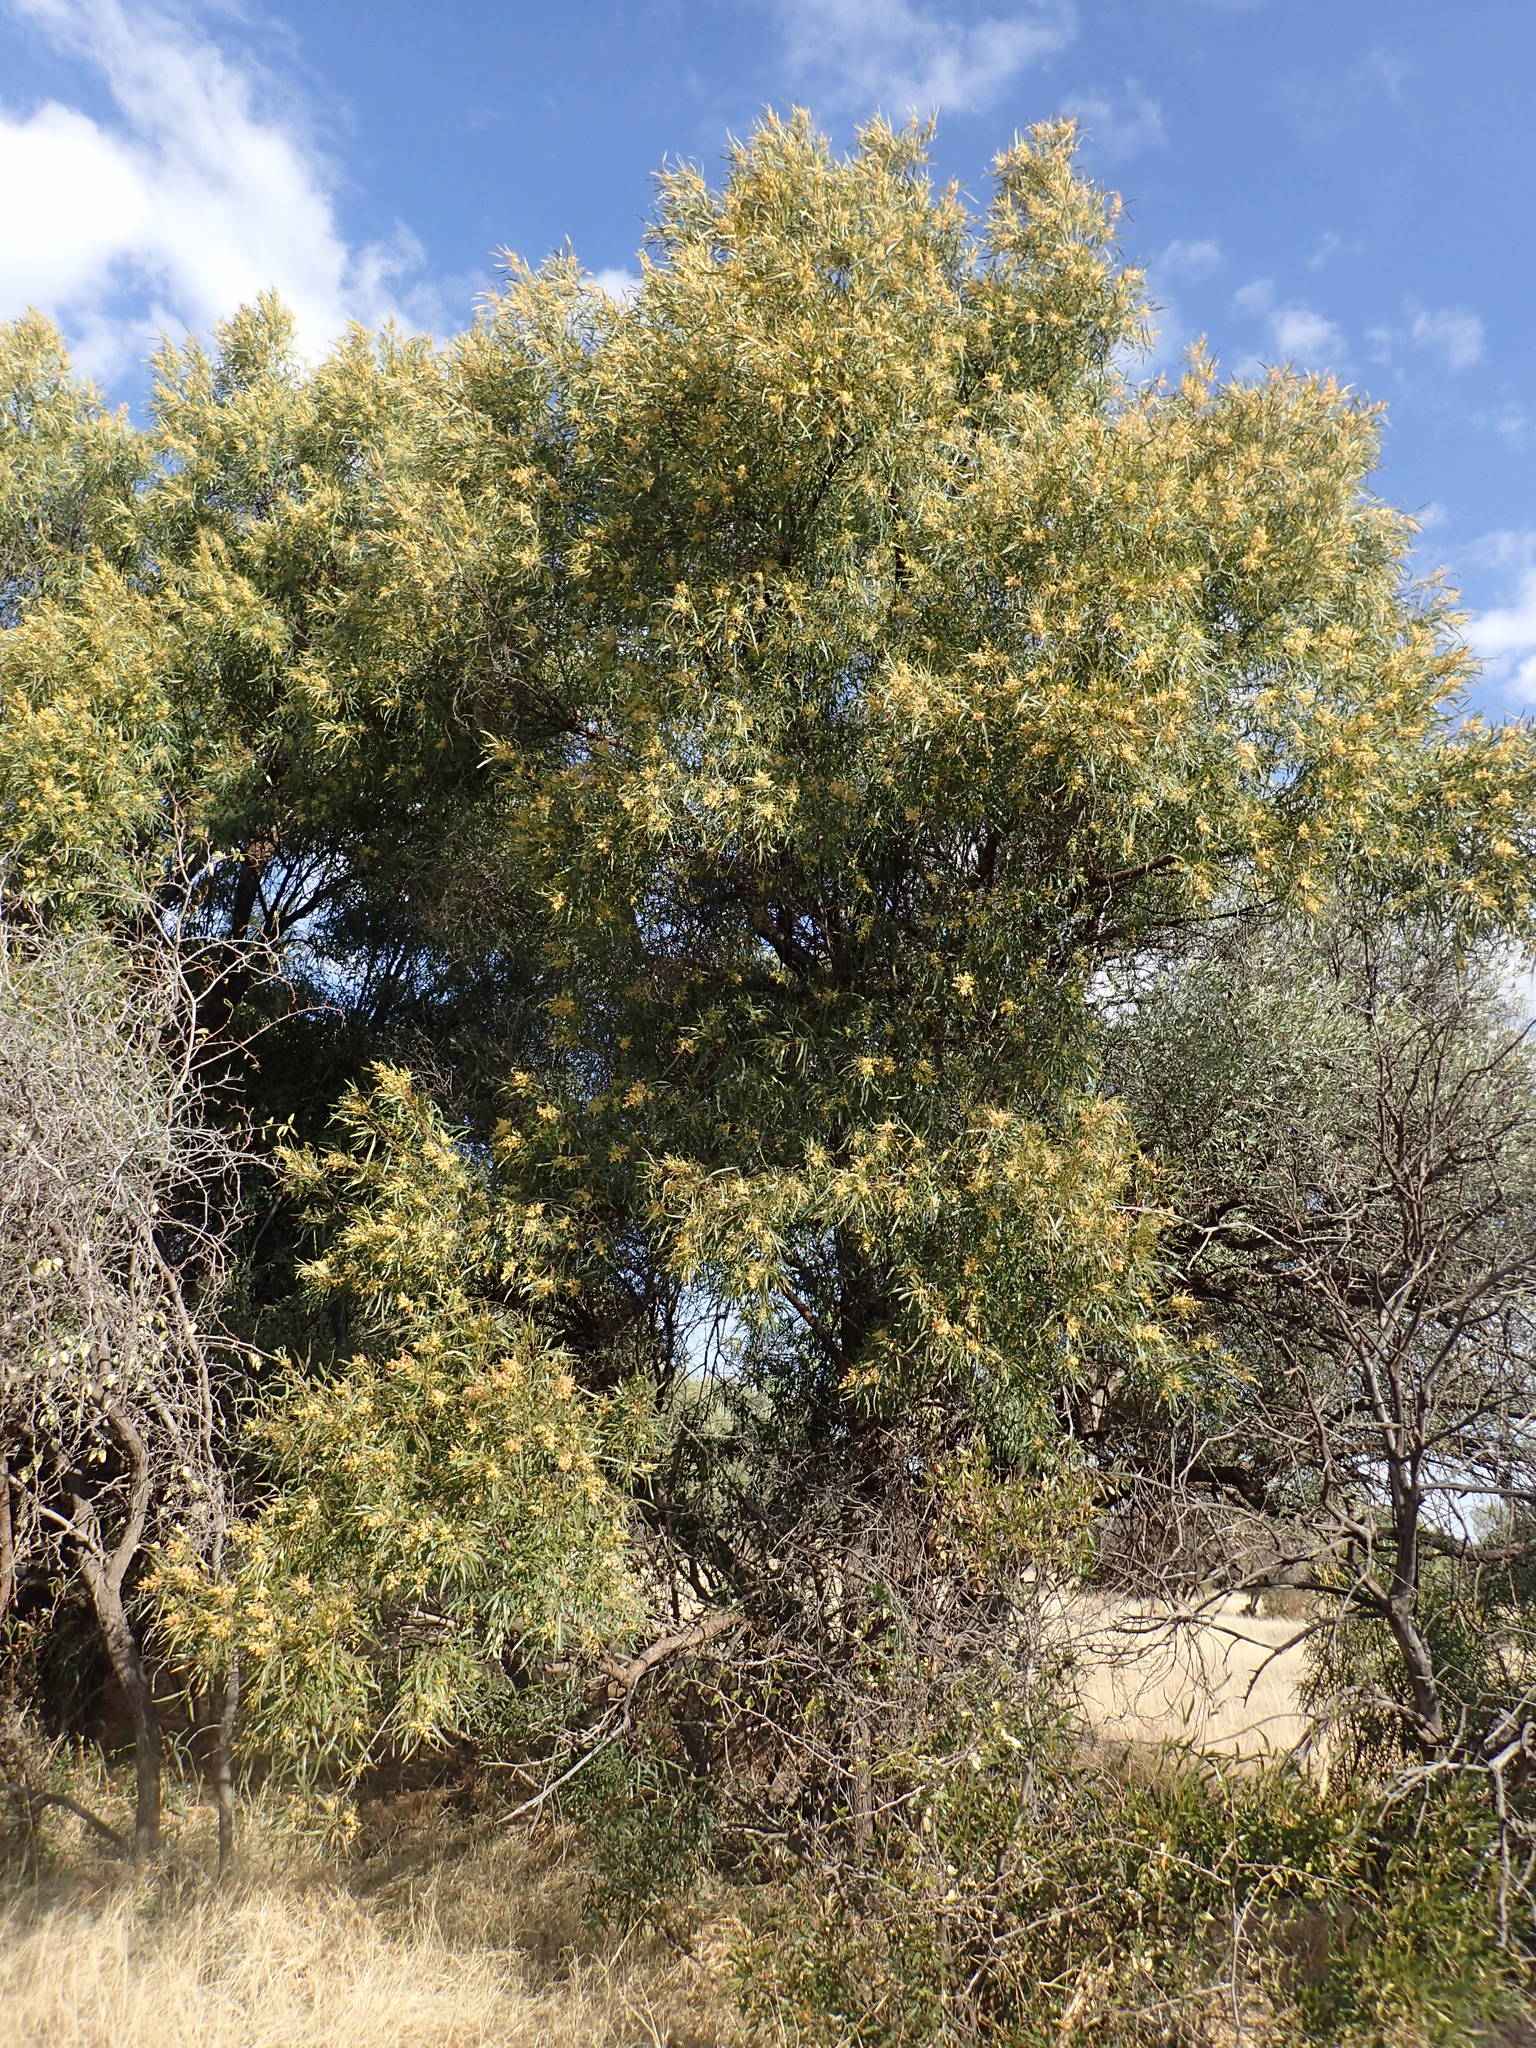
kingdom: Plantae
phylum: Tracheophyta
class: Magnoliopsida
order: Sapindales
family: Anacardiaceae
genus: Searsia
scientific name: Searsia lancea
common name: Cashew
